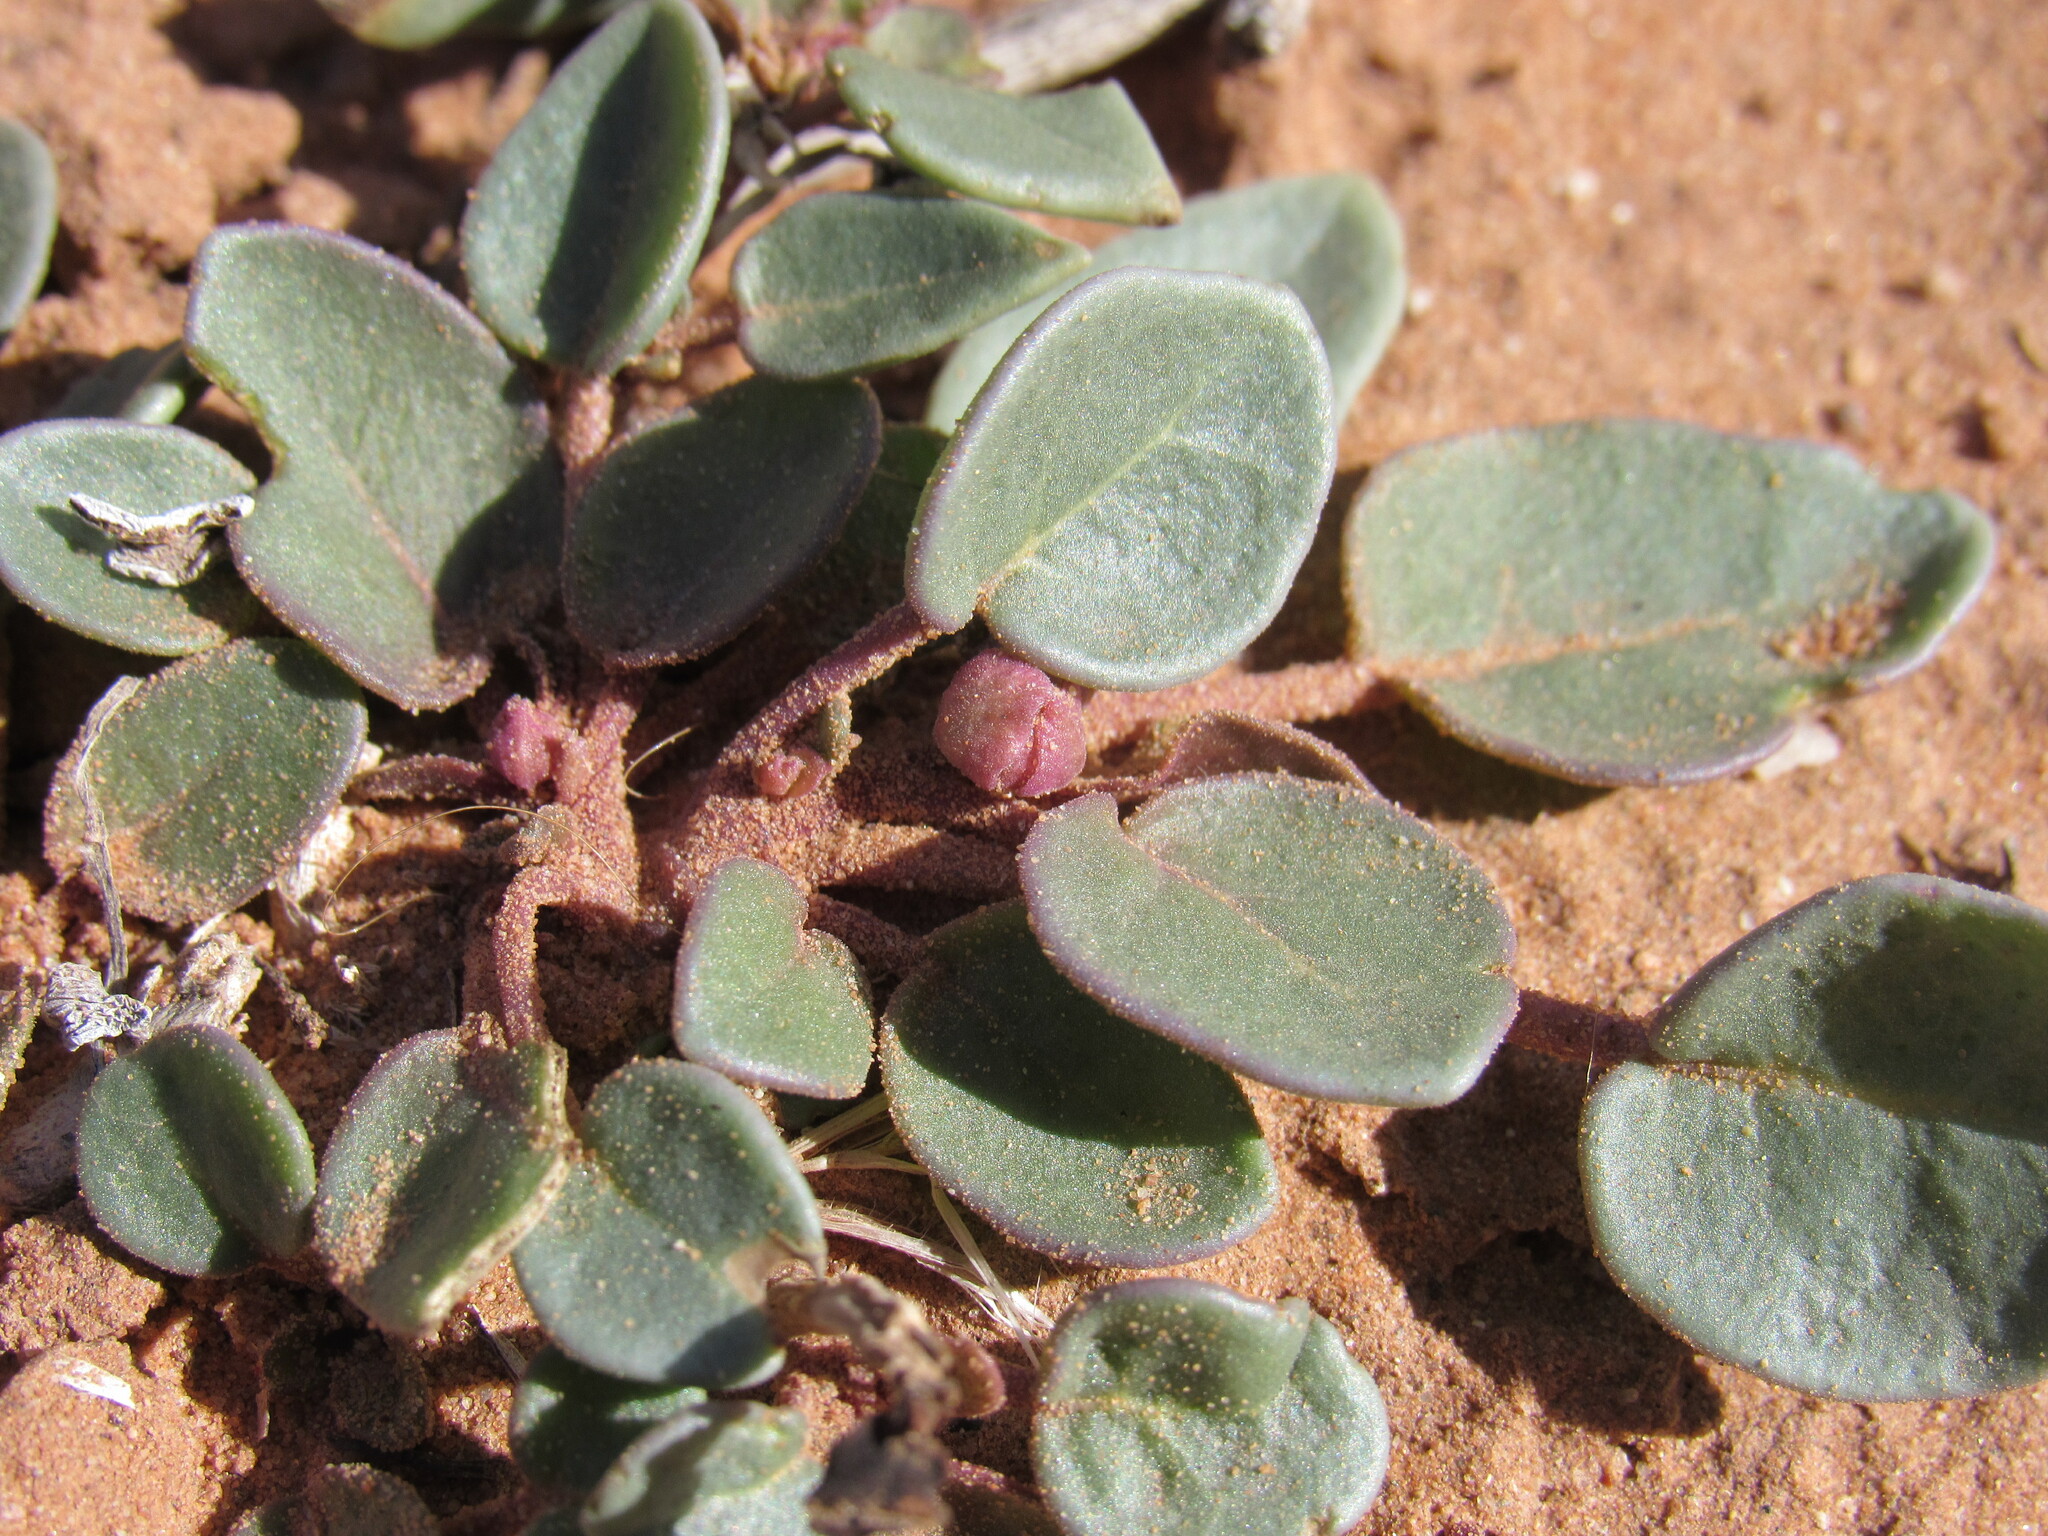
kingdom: Plantae
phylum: Tracheophyta
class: Magnoliopsida
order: Caryophyllales
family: Nyctaginaceae
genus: Abronia
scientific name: Abronia elliptica
